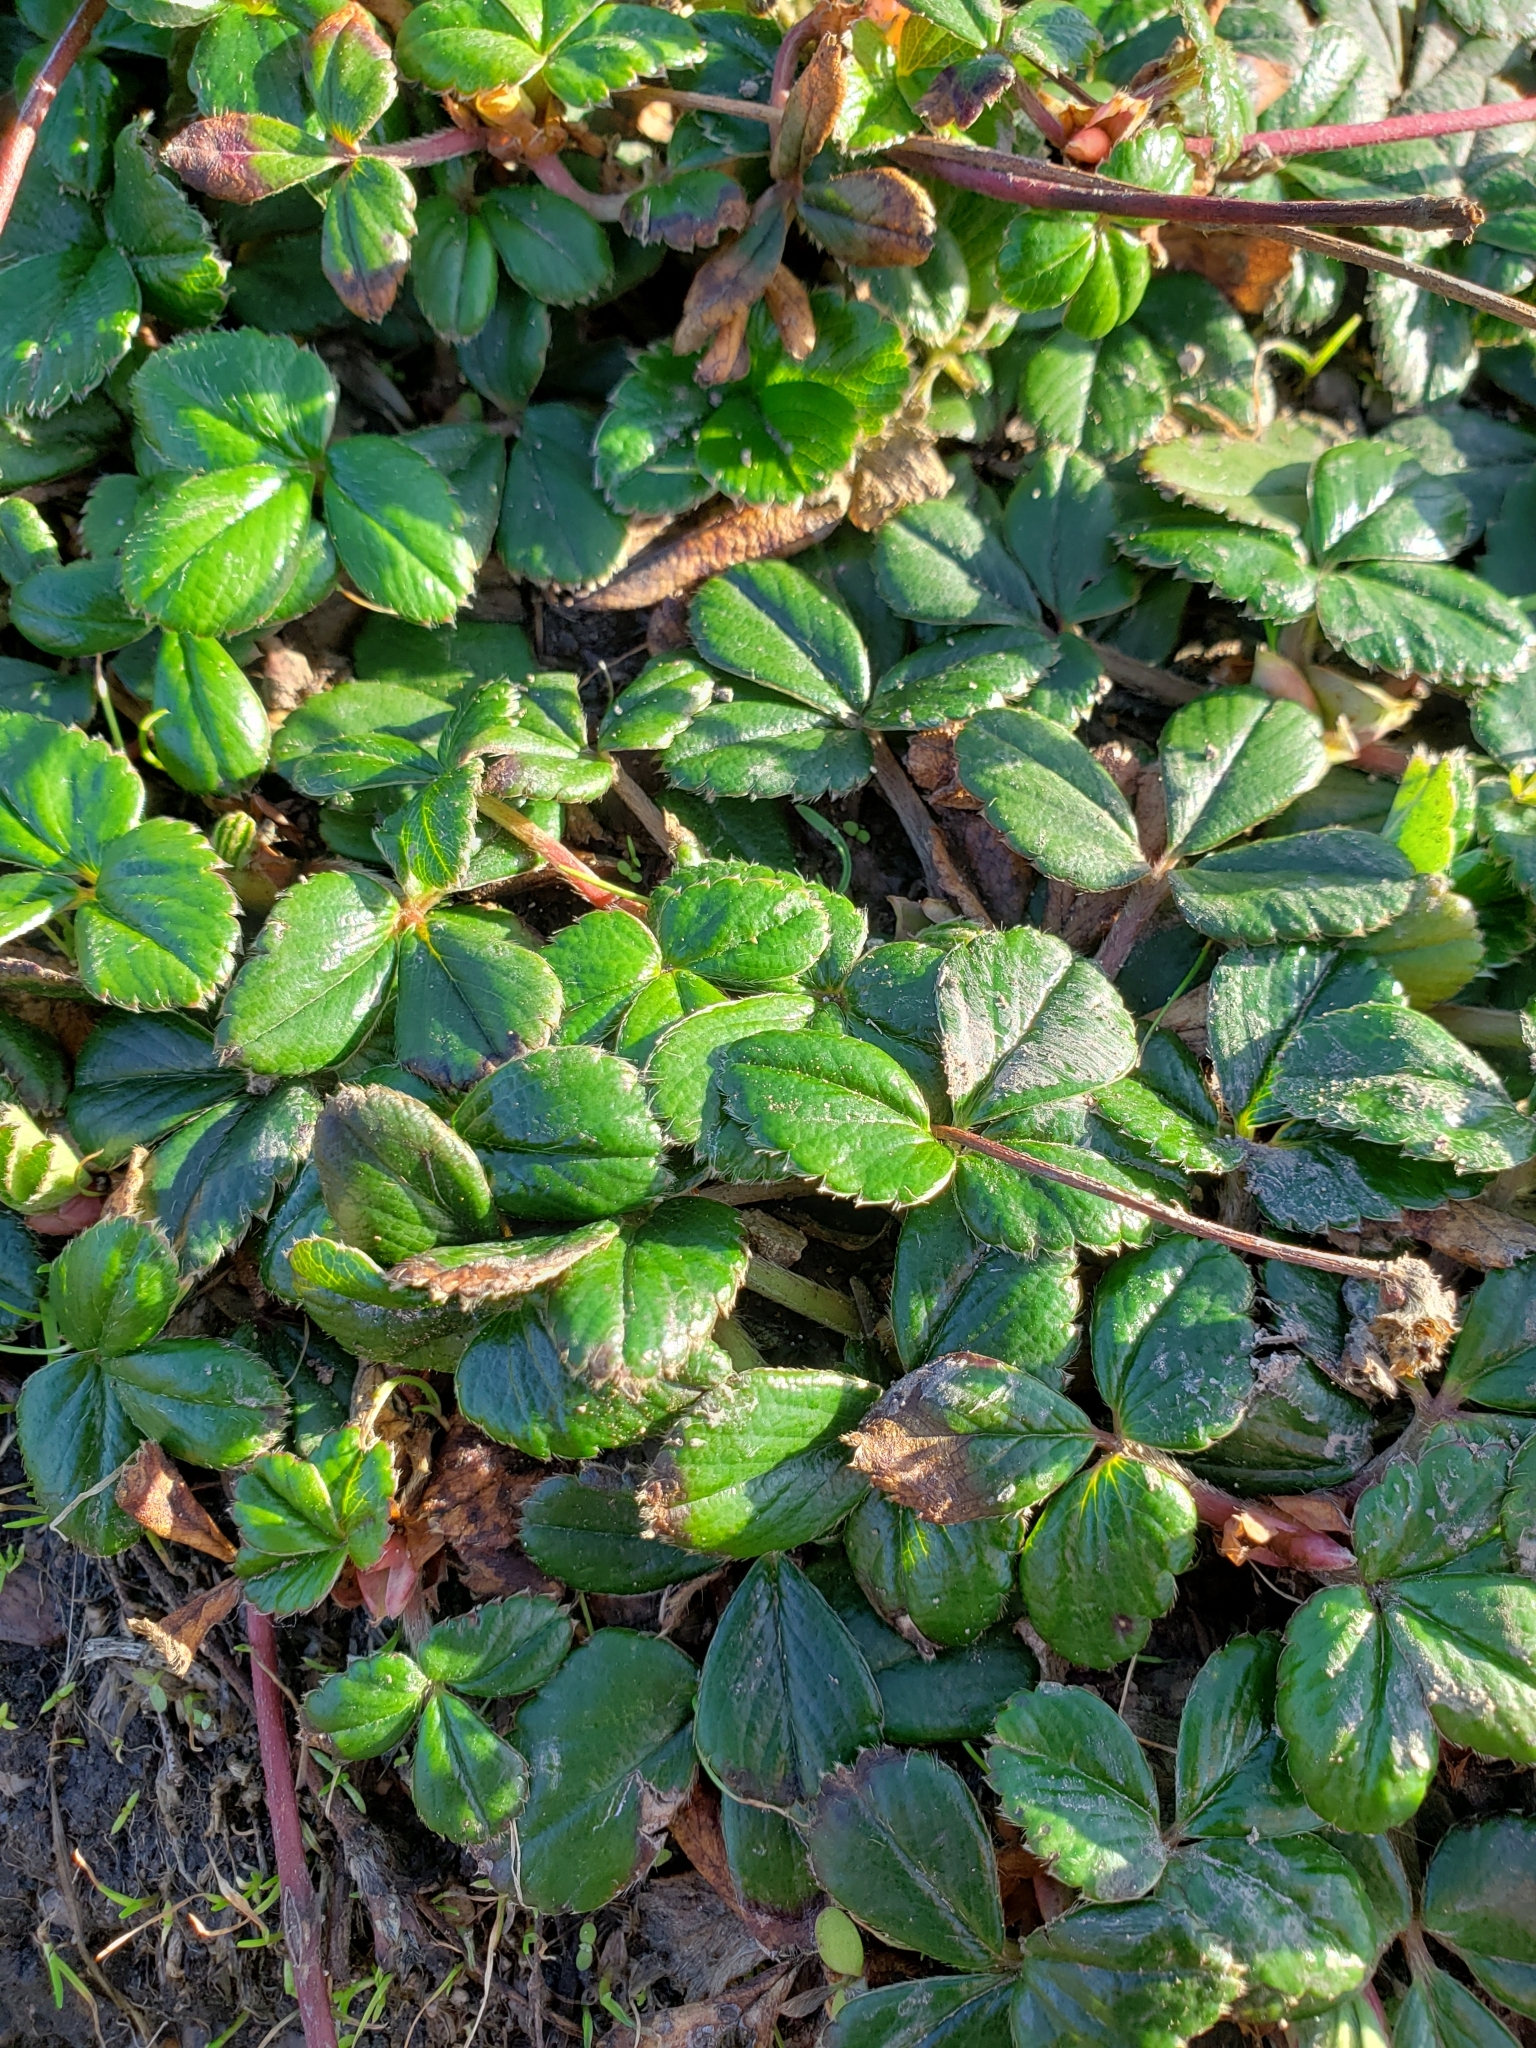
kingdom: Plantae
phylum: Tracheophyta
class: Magnoliopsida
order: Rosales
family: Rosaceae
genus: Fragaria
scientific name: Fragaria chiloensis
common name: Beach strawberry
